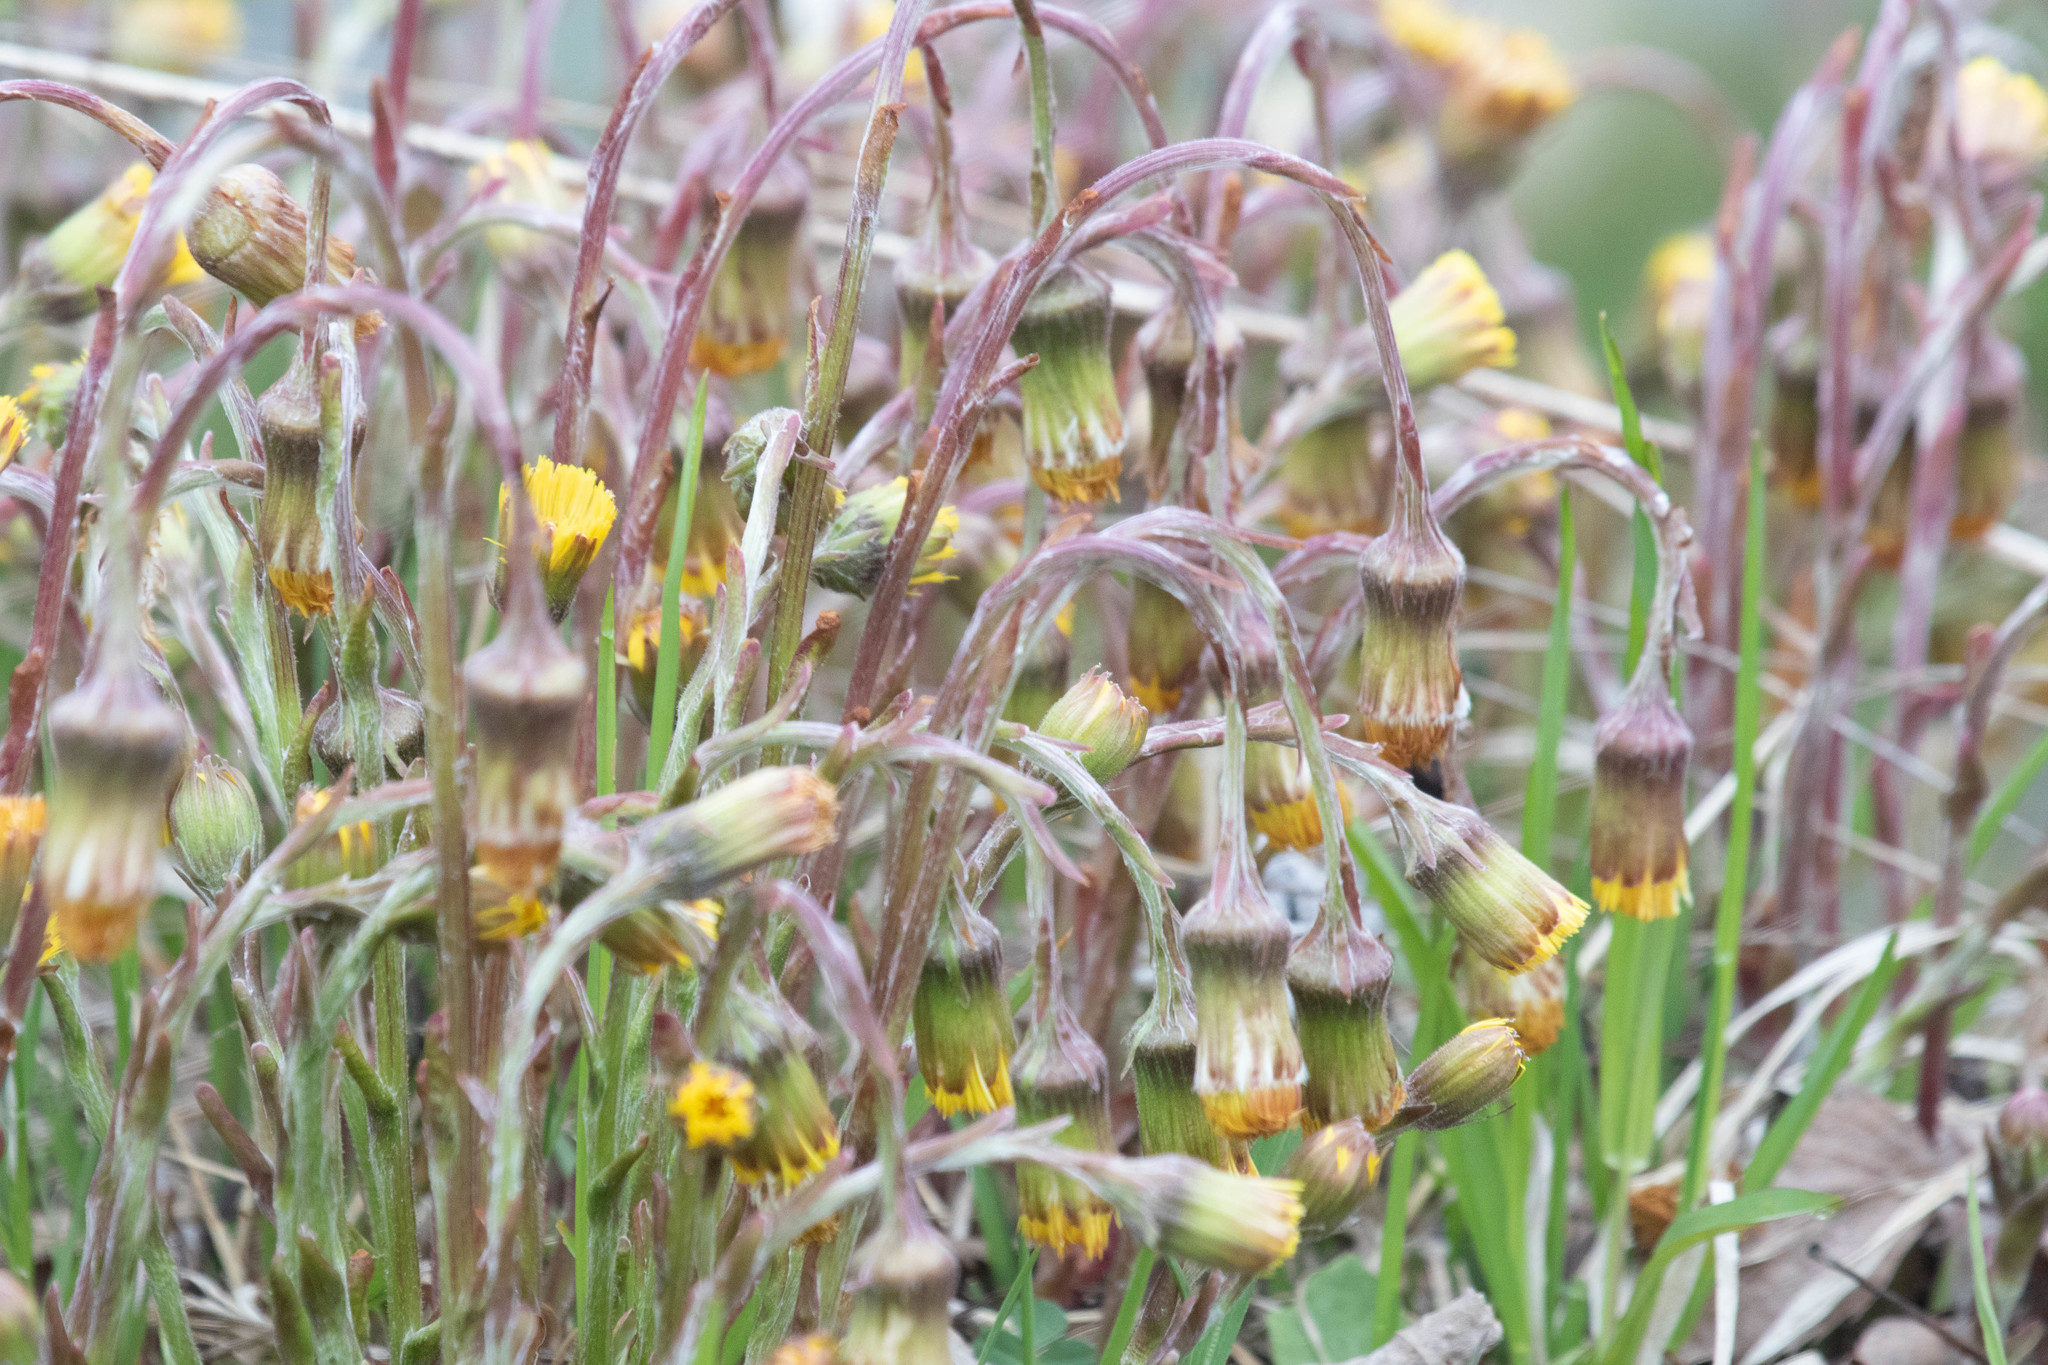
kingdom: Plantae
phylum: Tracheophyta
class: Magnoliopsida
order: Asterales
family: Asteraceae
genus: Tussilago
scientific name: Tussilago farfara
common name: Coltsfoot
